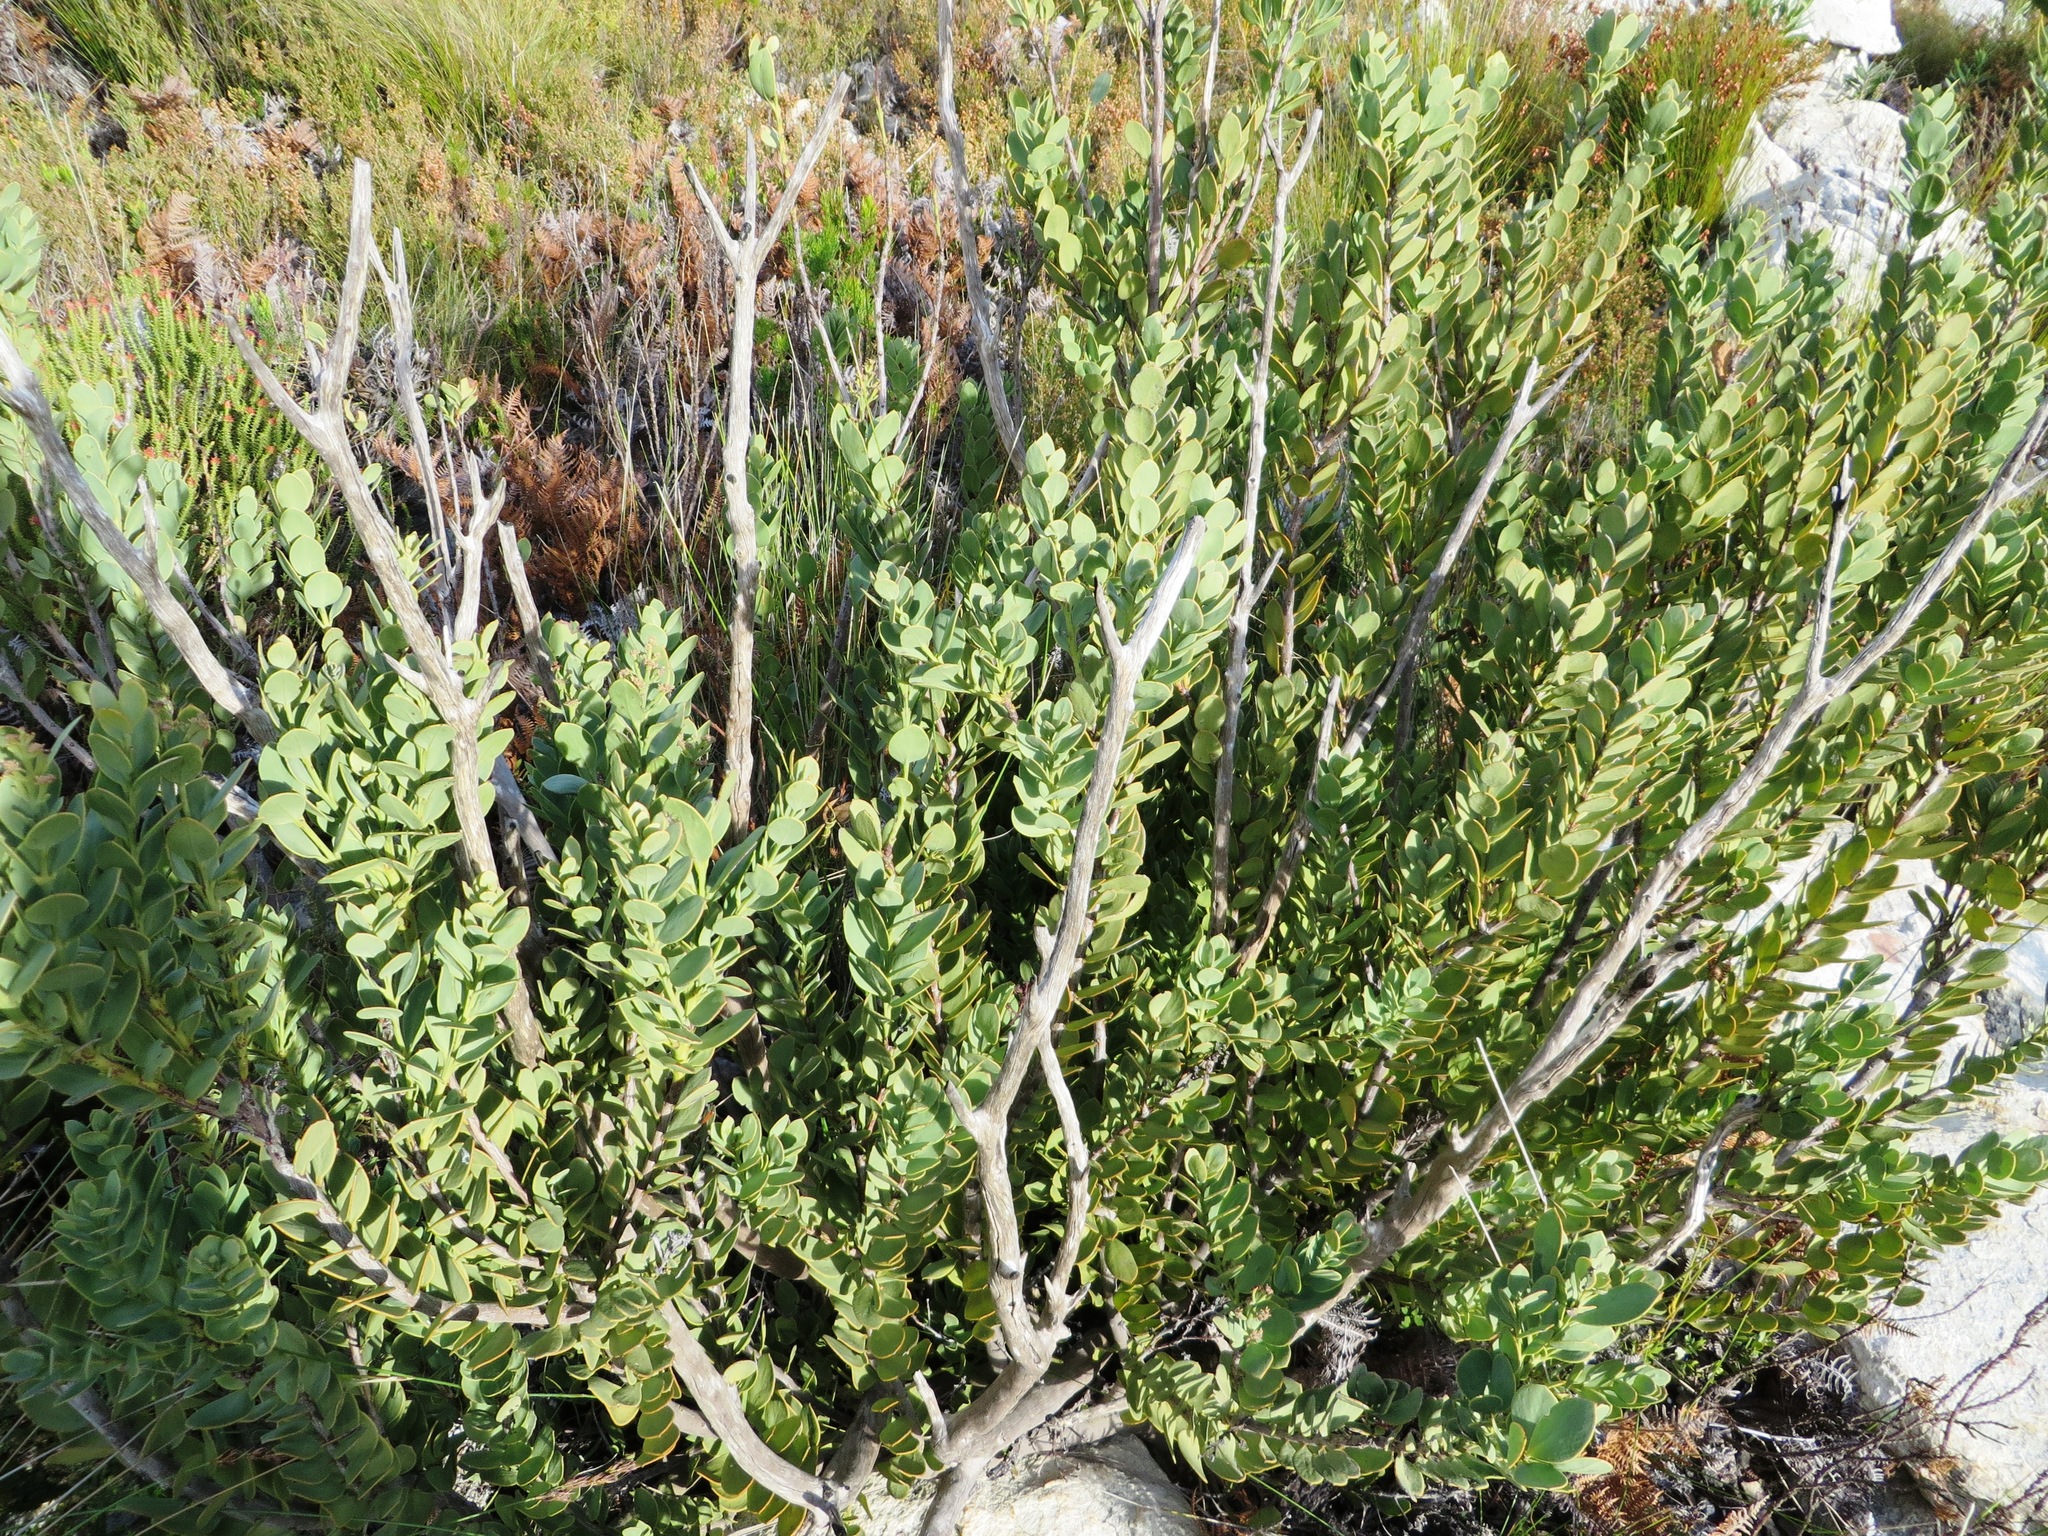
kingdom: Plantae
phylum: Tracheophyta
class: Magnoliopsida
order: Santalales
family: Santalaceae
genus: Osyris
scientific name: Osyris speciosa
